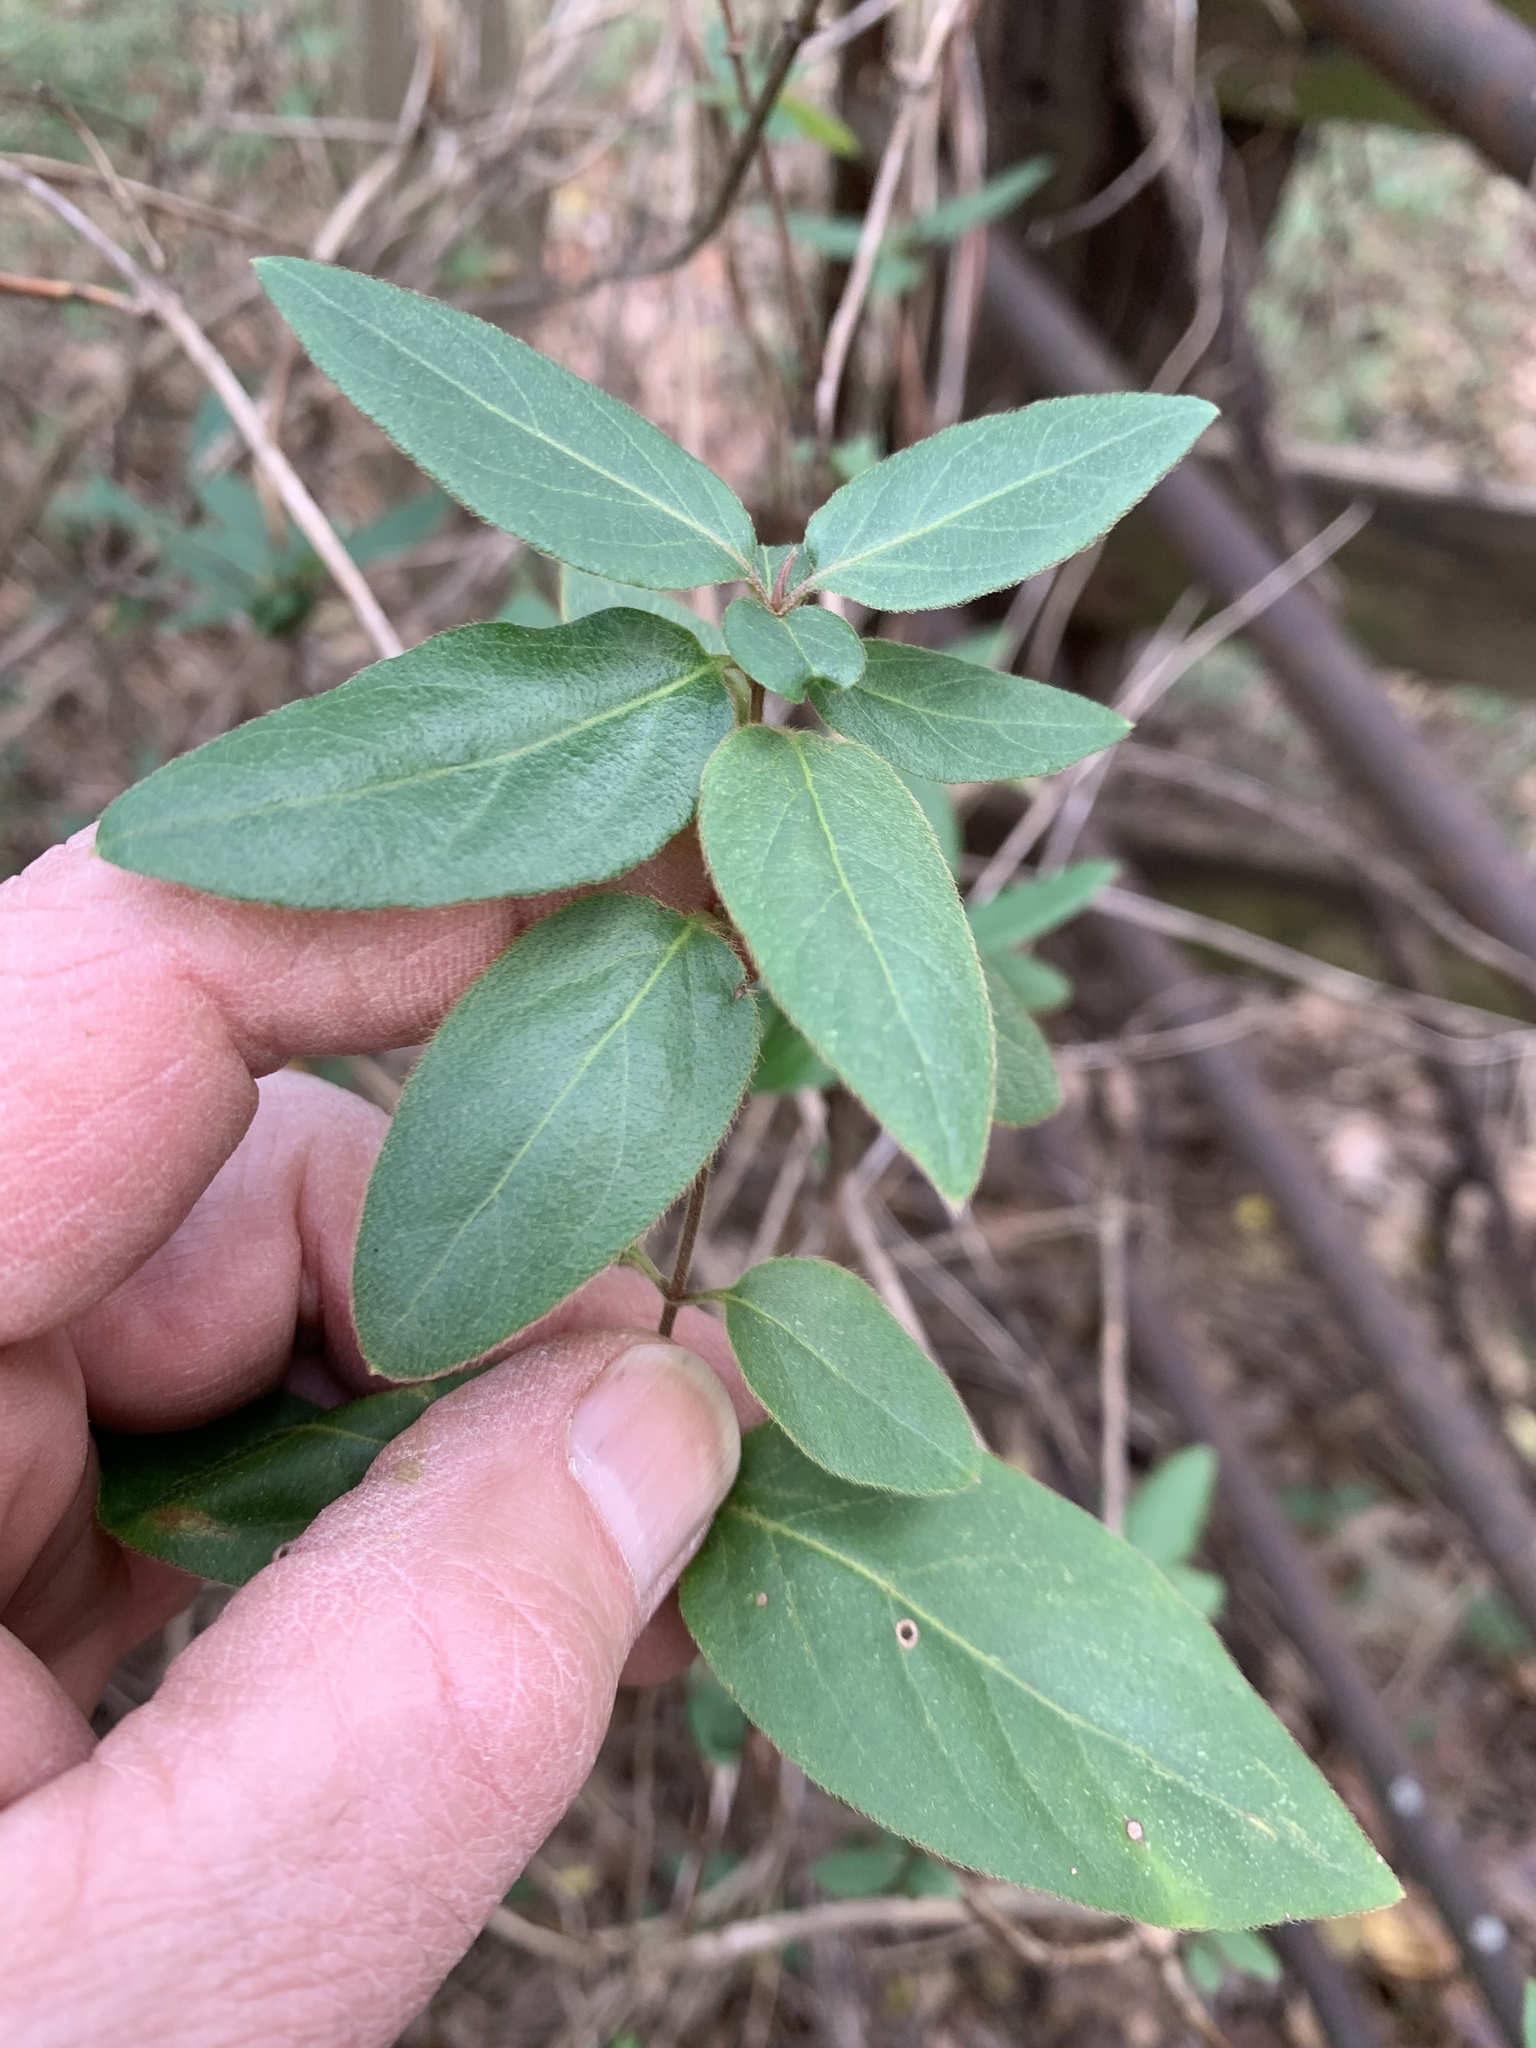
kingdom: Plantae
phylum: Tracheophyta
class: Magnoliopsida
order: Dipsacales
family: Caprifoliaceae
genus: Lonicera
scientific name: Lonicera japonica
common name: Japanese honeysuckle
